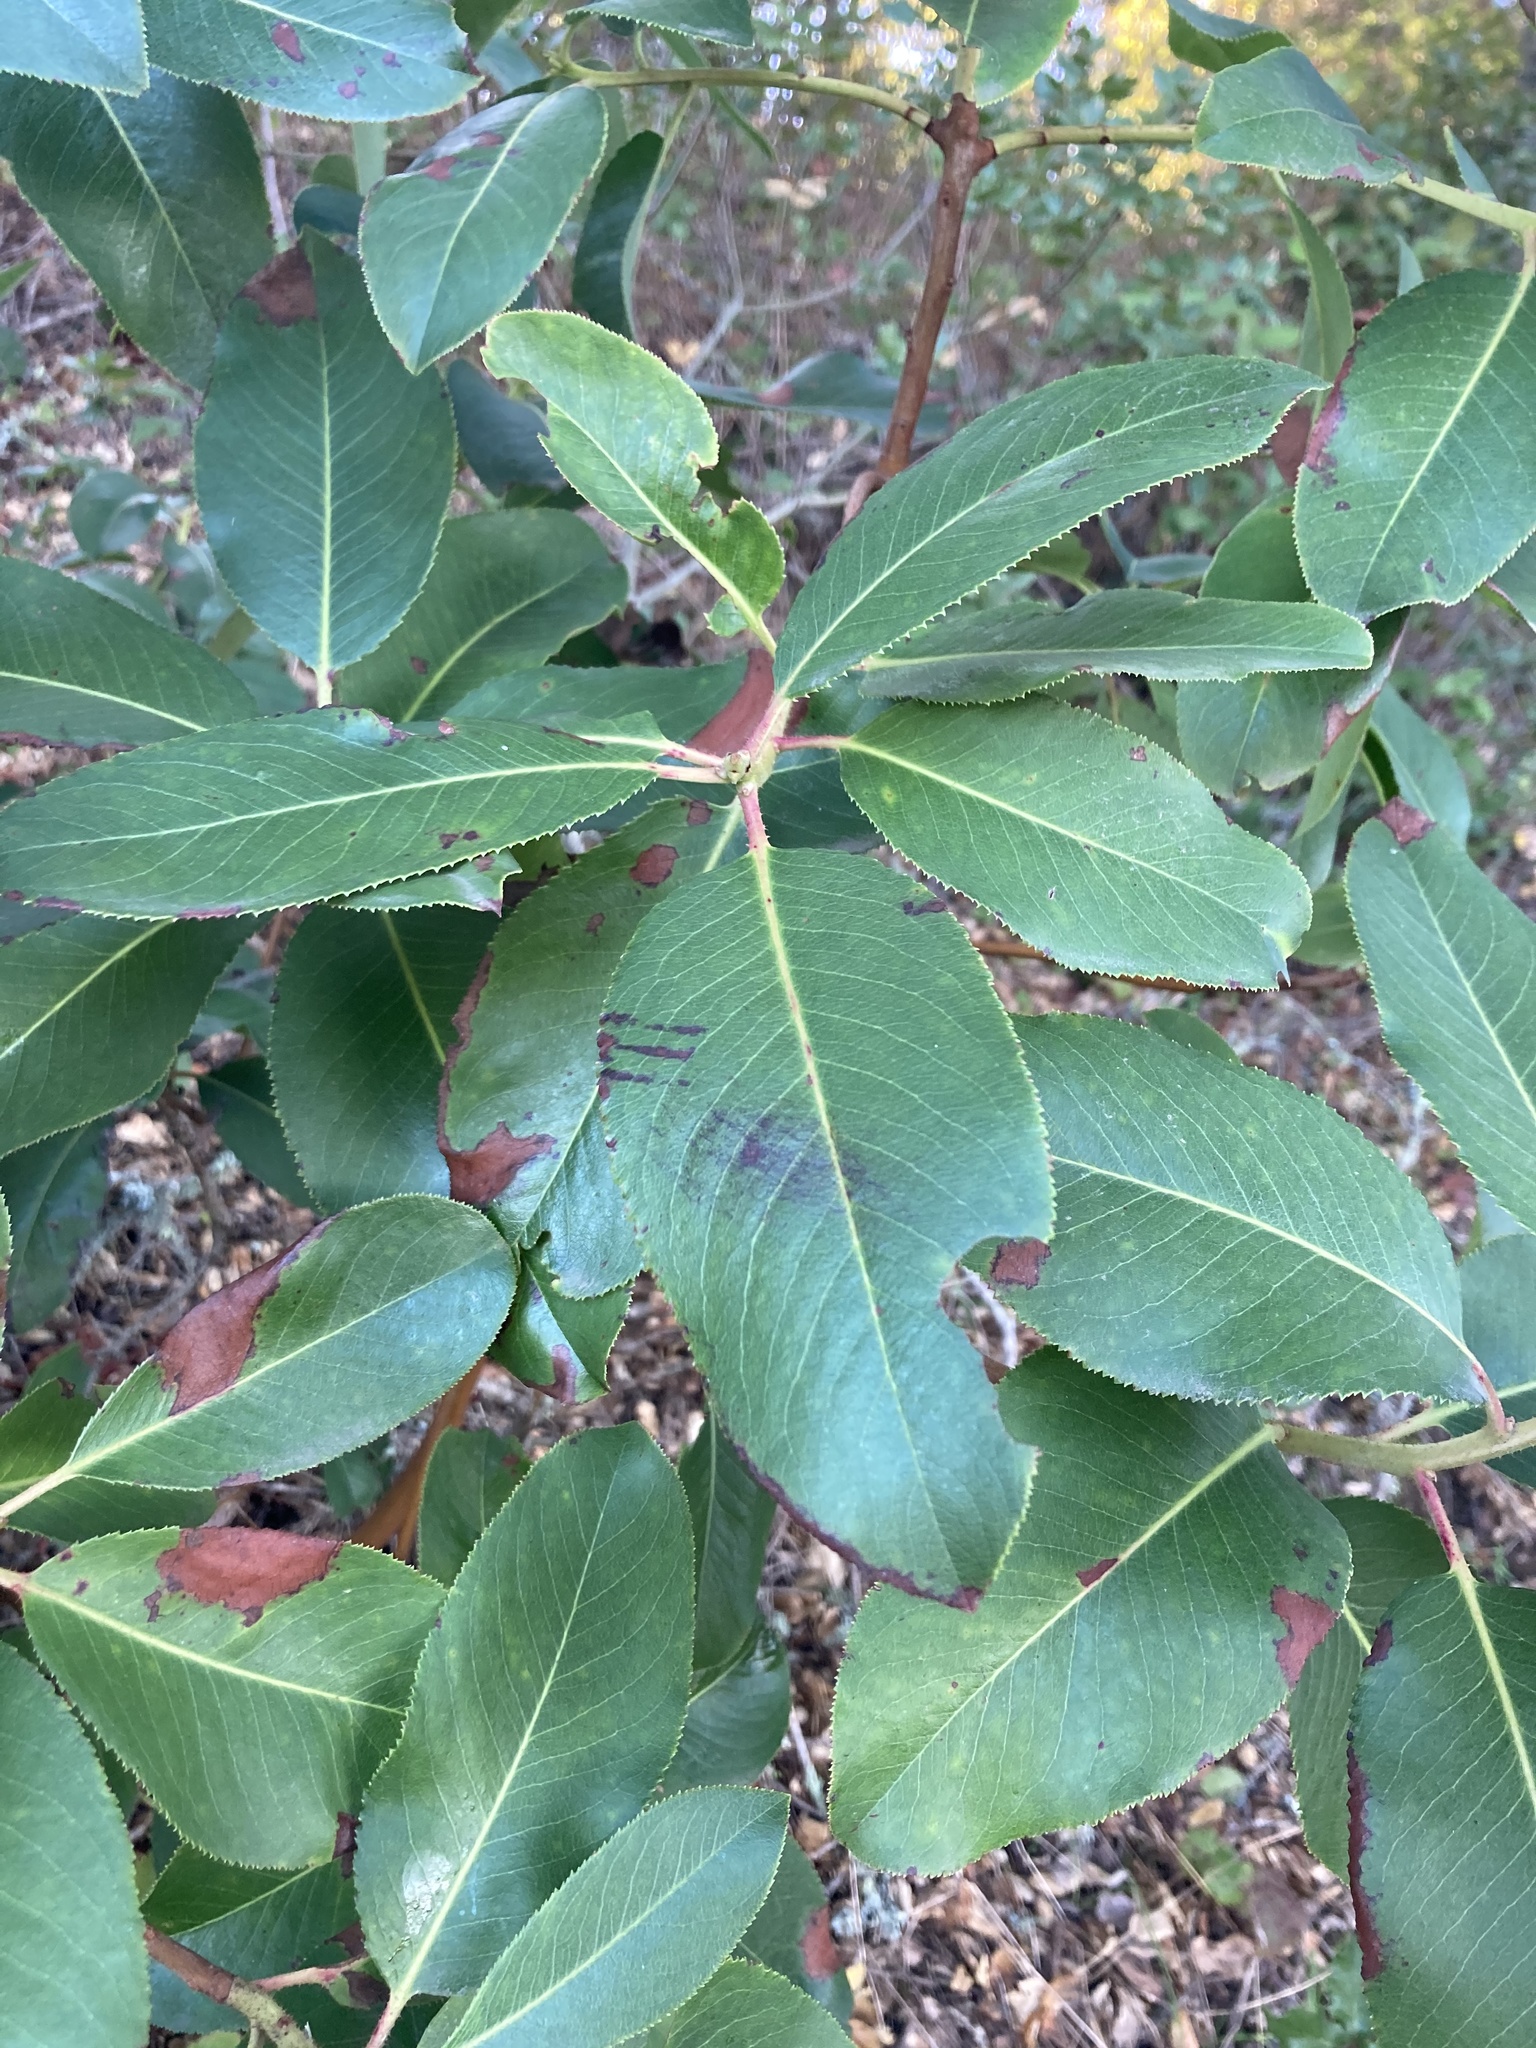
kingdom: Plantae
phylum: Tracheophyta
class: Magnoliopsida
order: Ericales
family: Ericaceae
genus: Arbutus
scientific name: Arbutus menziesii
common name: Pacific madrone
